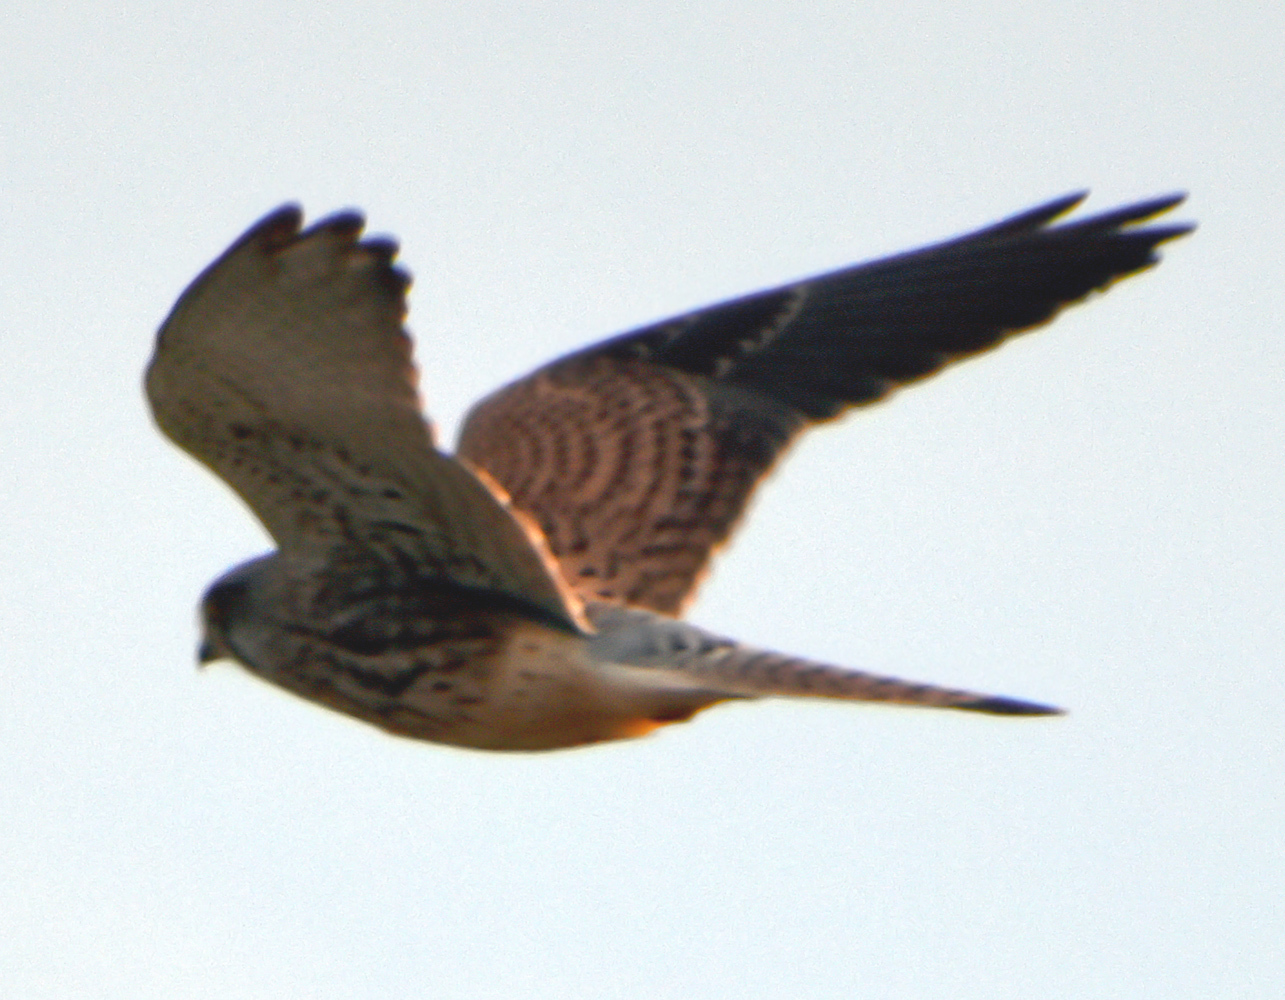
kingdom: Animalia
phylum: Chordata
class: Aves
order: Falconiformes
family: Falconidae
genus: Falco
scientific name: Falco tinnunculus
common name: Common kestrel
